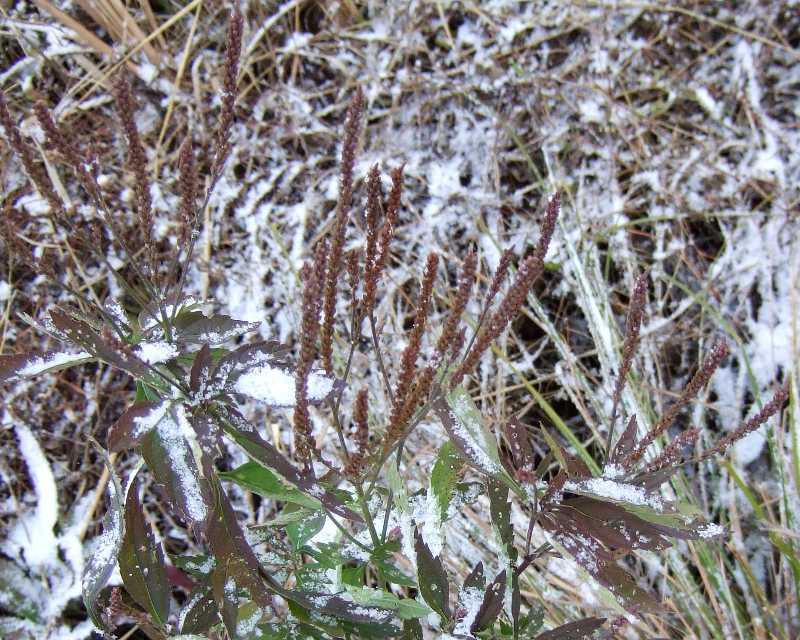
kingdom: Plantae
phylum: Tracheophyta
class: Magnoliopsida
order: Lamiales
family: Verbenaceae
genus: Verbena
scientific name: Verbena hastata
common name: American blue vervain
